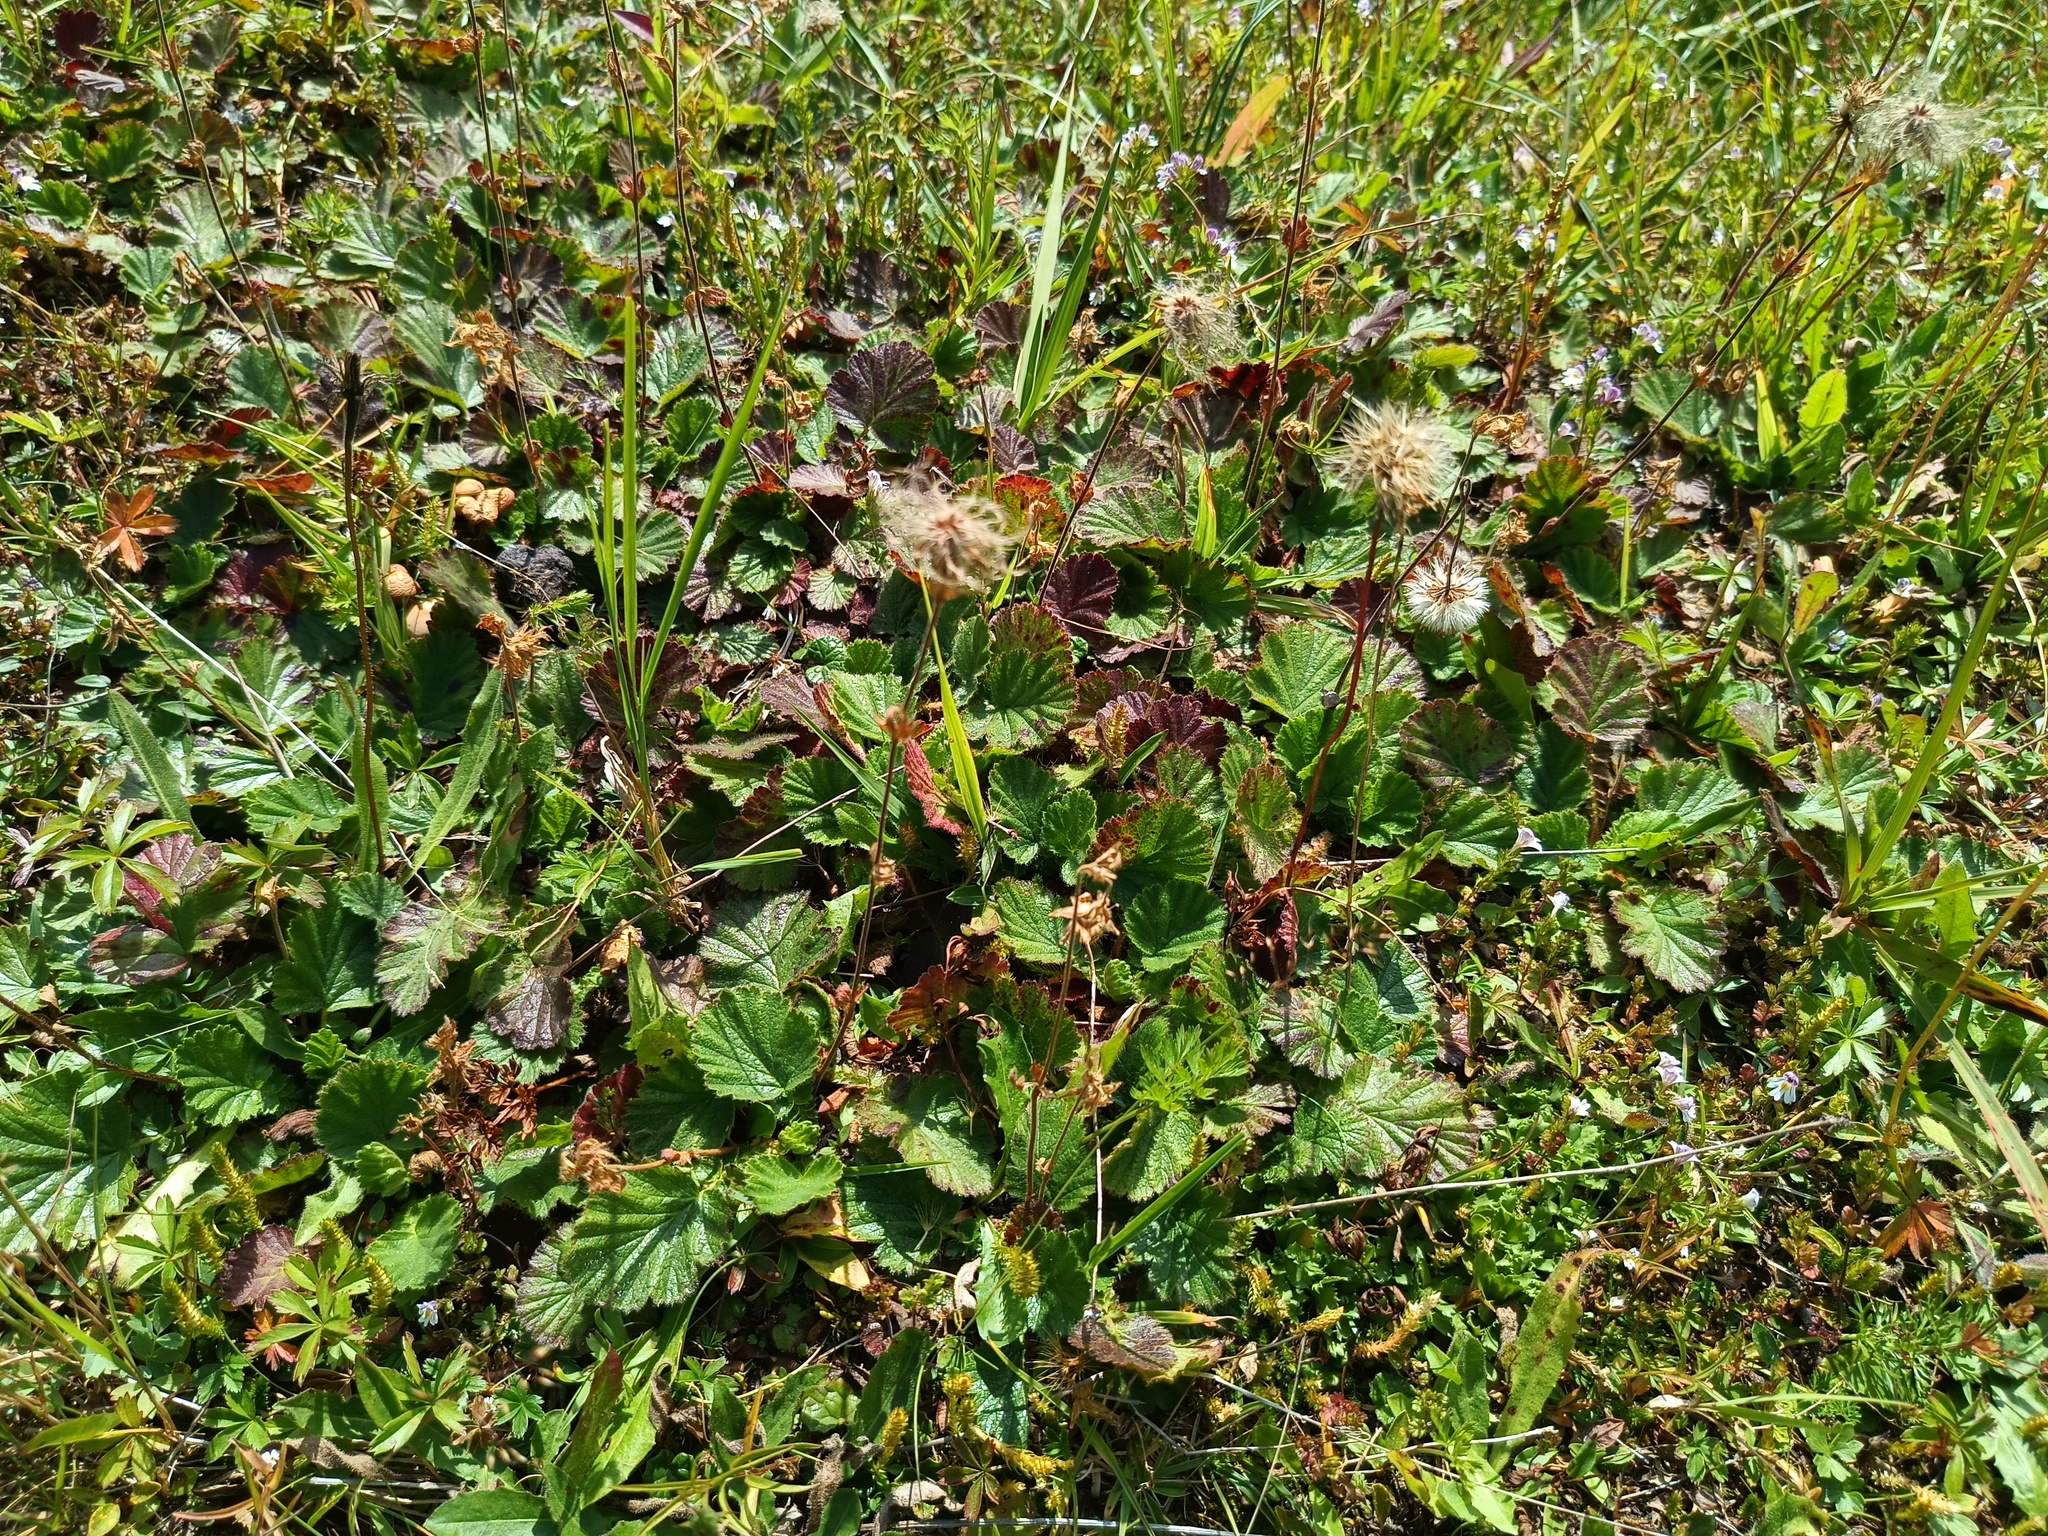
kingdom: Plantae
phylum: Tracheophyta
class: Magnoliopsida
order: Rosales
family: Rosaceae
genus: Geum
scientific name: Geum montanum
